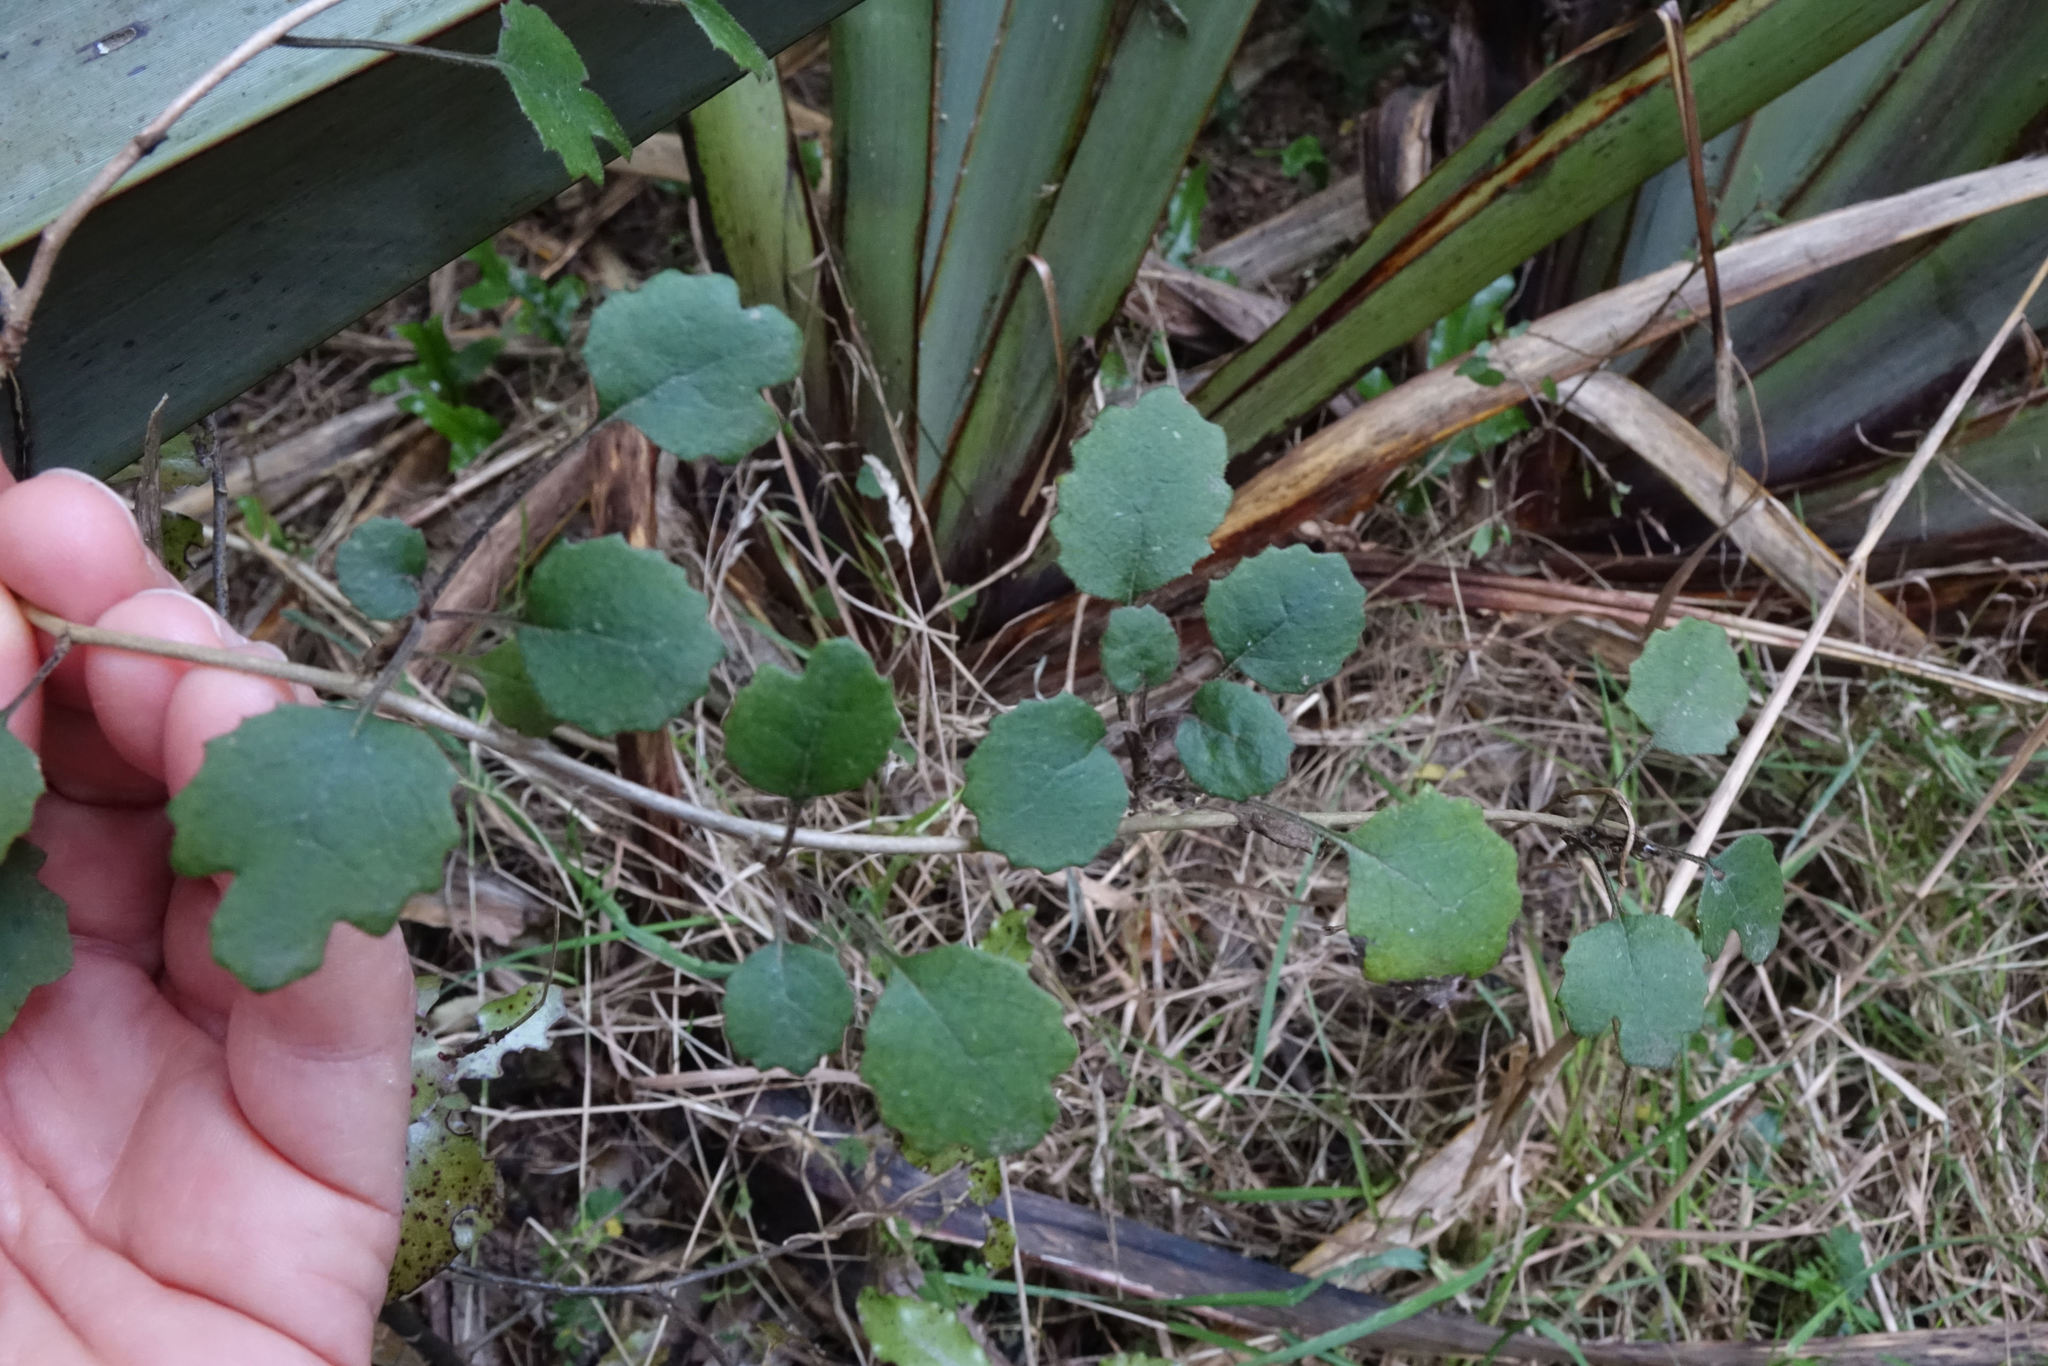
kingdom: Plantae
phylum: Tracheophyta
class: Magnoliopsida
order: Asterales
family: Asteraceae
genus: Brachyglottis
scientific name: Brachyglottis sciadophila
